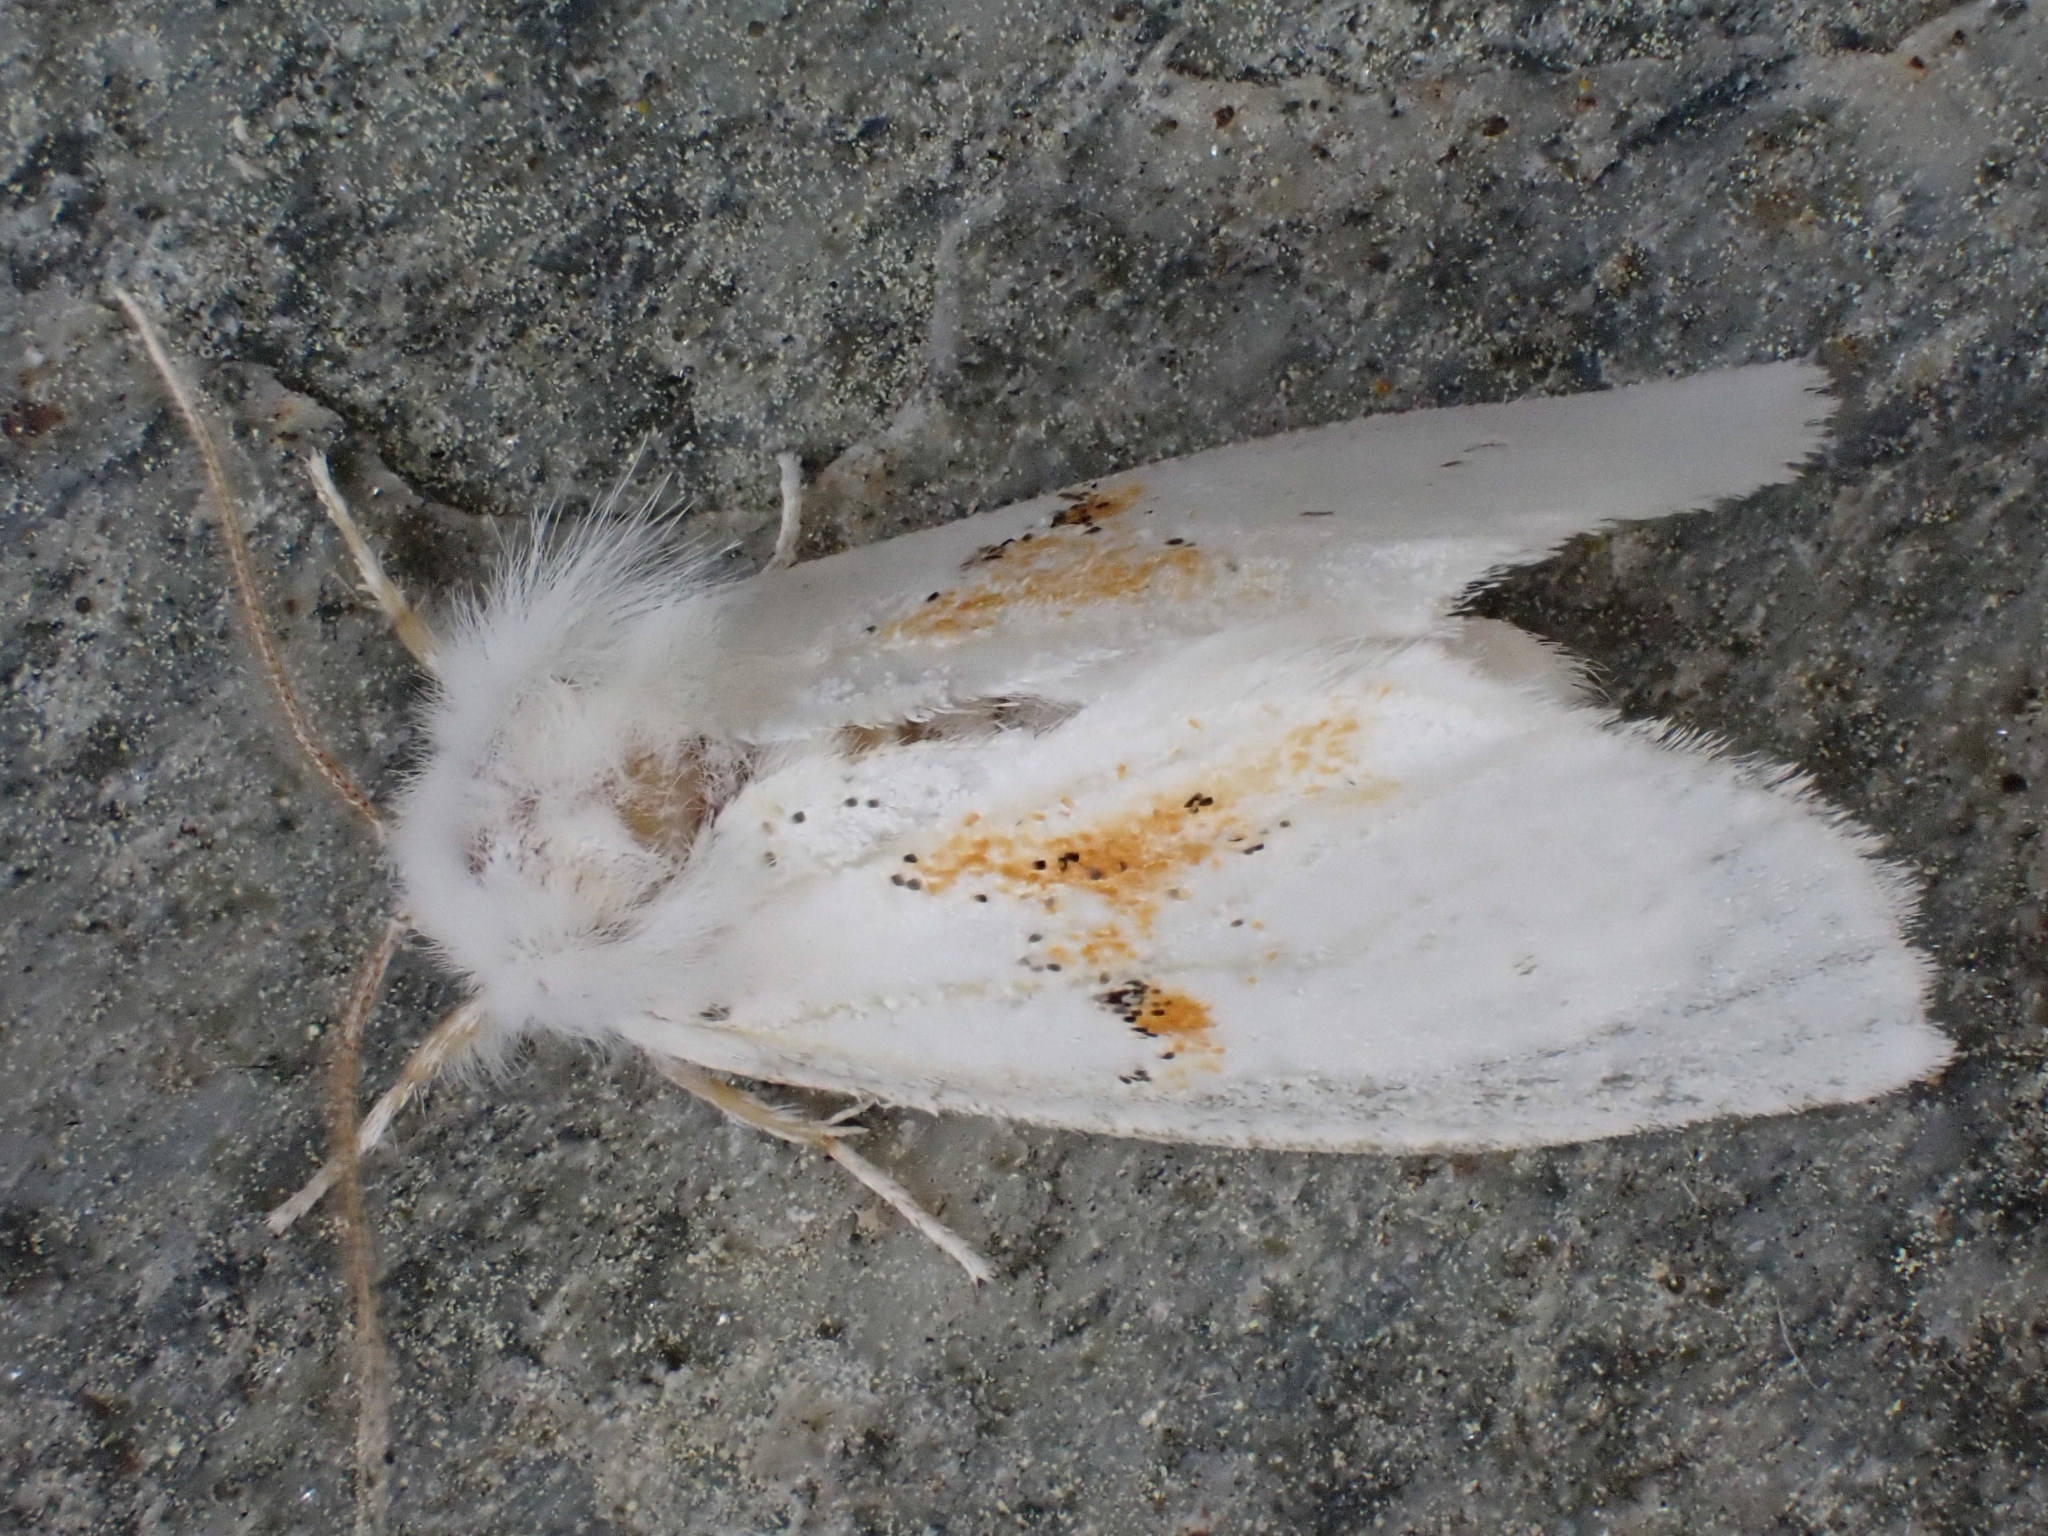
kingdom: Animalia
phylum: Arthropoda
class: Insecta
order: Lepidoptera
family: Notodontidae
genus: Leucodonta
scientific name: Leucodonta bicoloria
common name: White prominent
